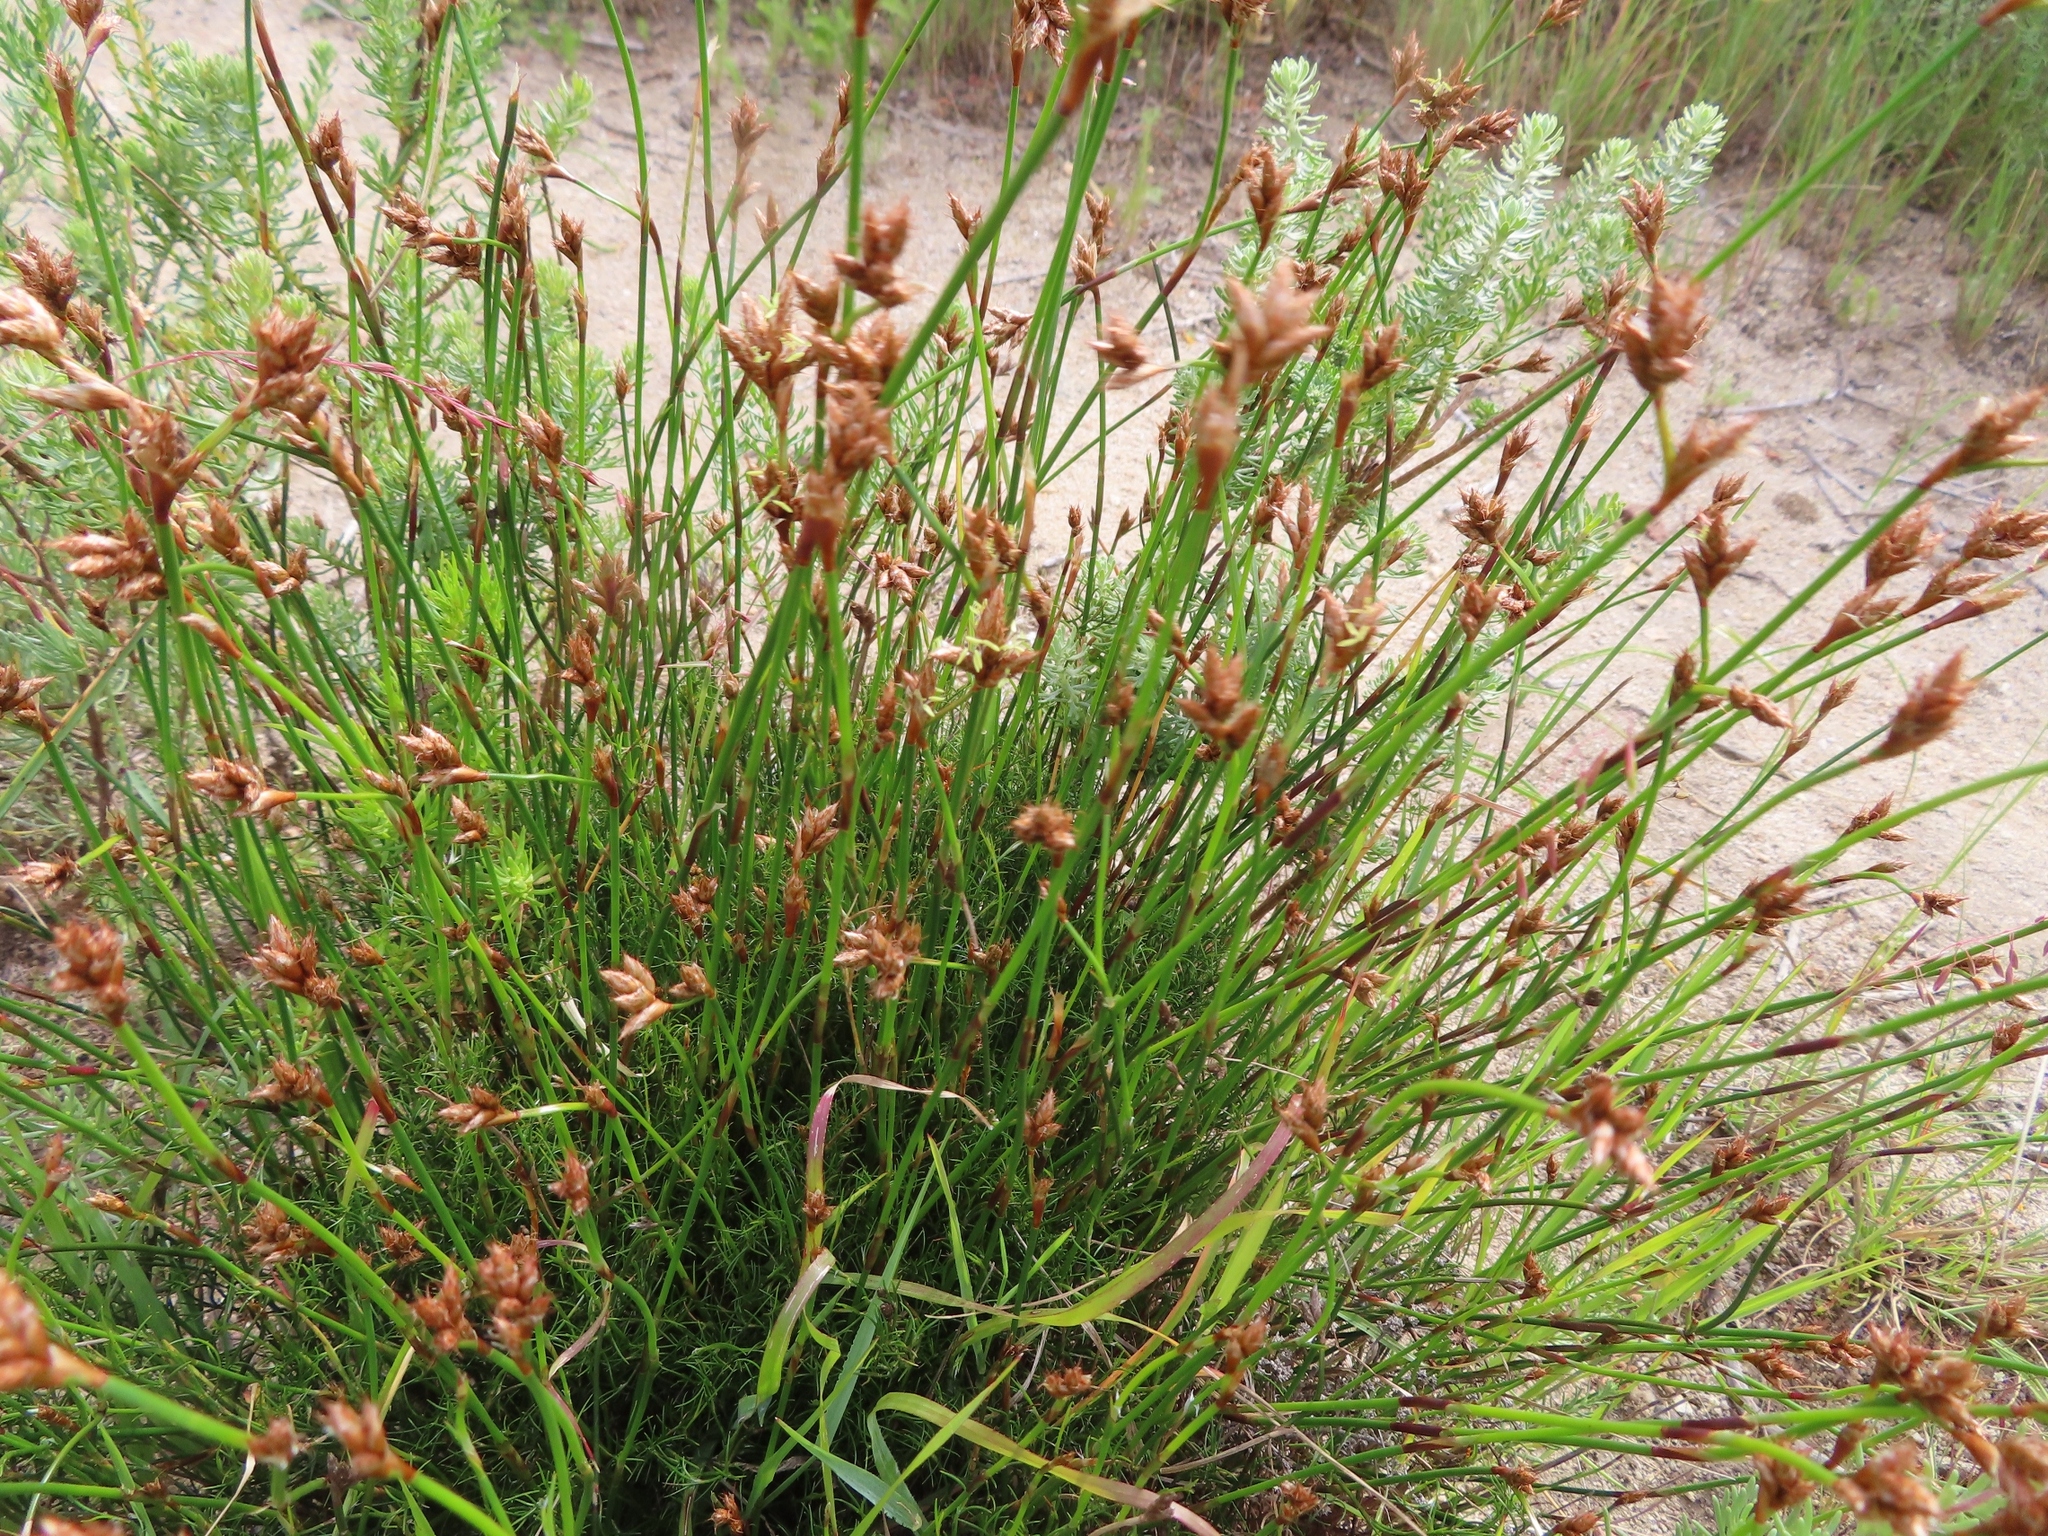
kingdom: Plantae
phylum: Tracheophyta
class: Liliopsida
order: Poales
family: Restionaceae
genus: Restio
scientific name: Restio capensis
